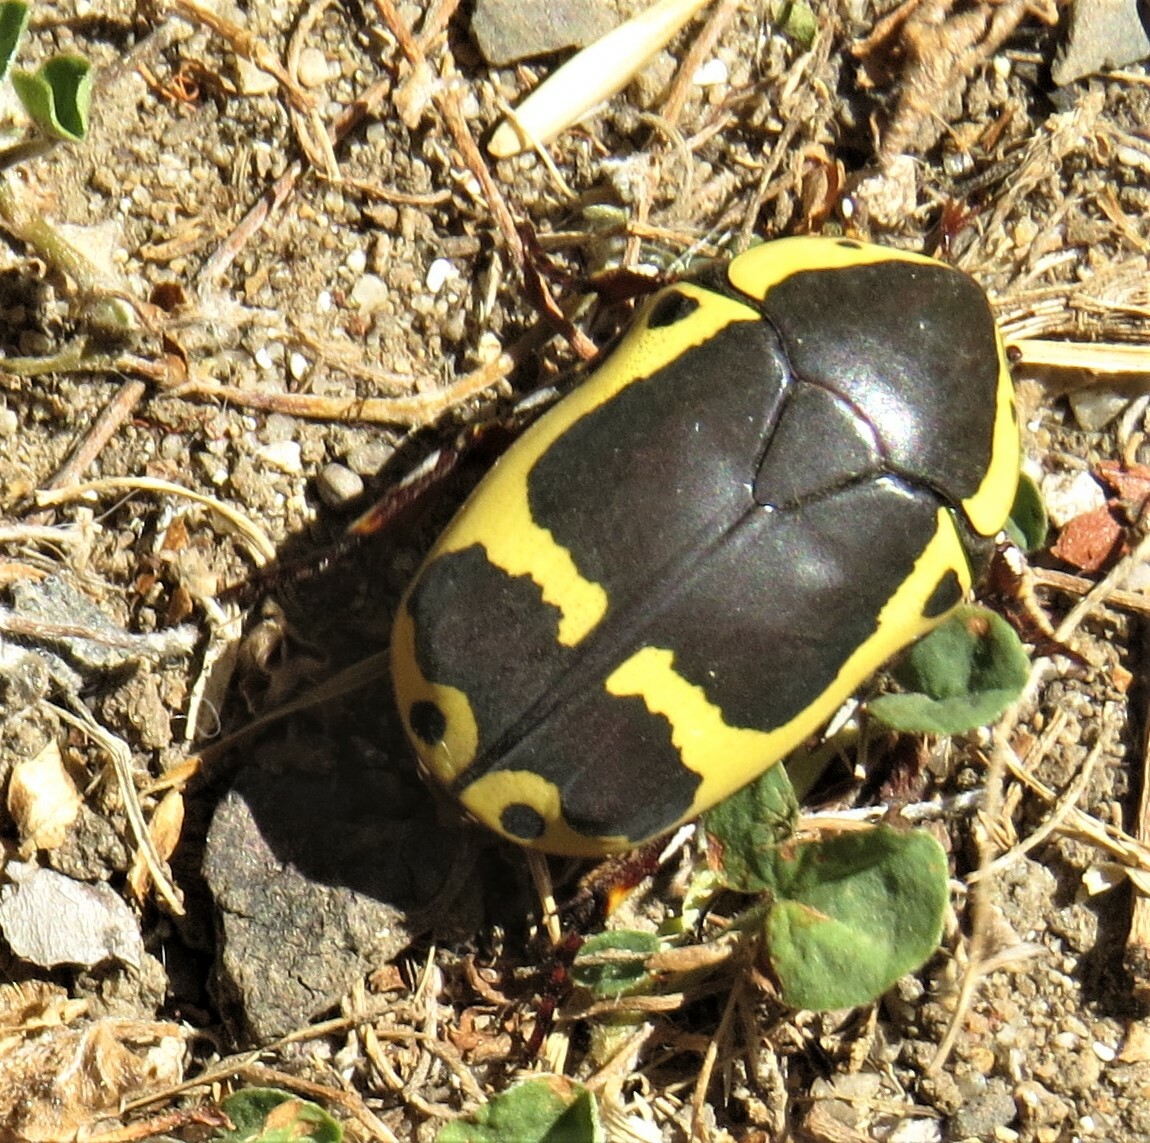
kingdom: Animalia
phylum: Arthropoda
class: Insecta
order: Coleoptera
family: Scarabaeidae
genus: Pachnoda
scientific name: Pachnoda sinuata
